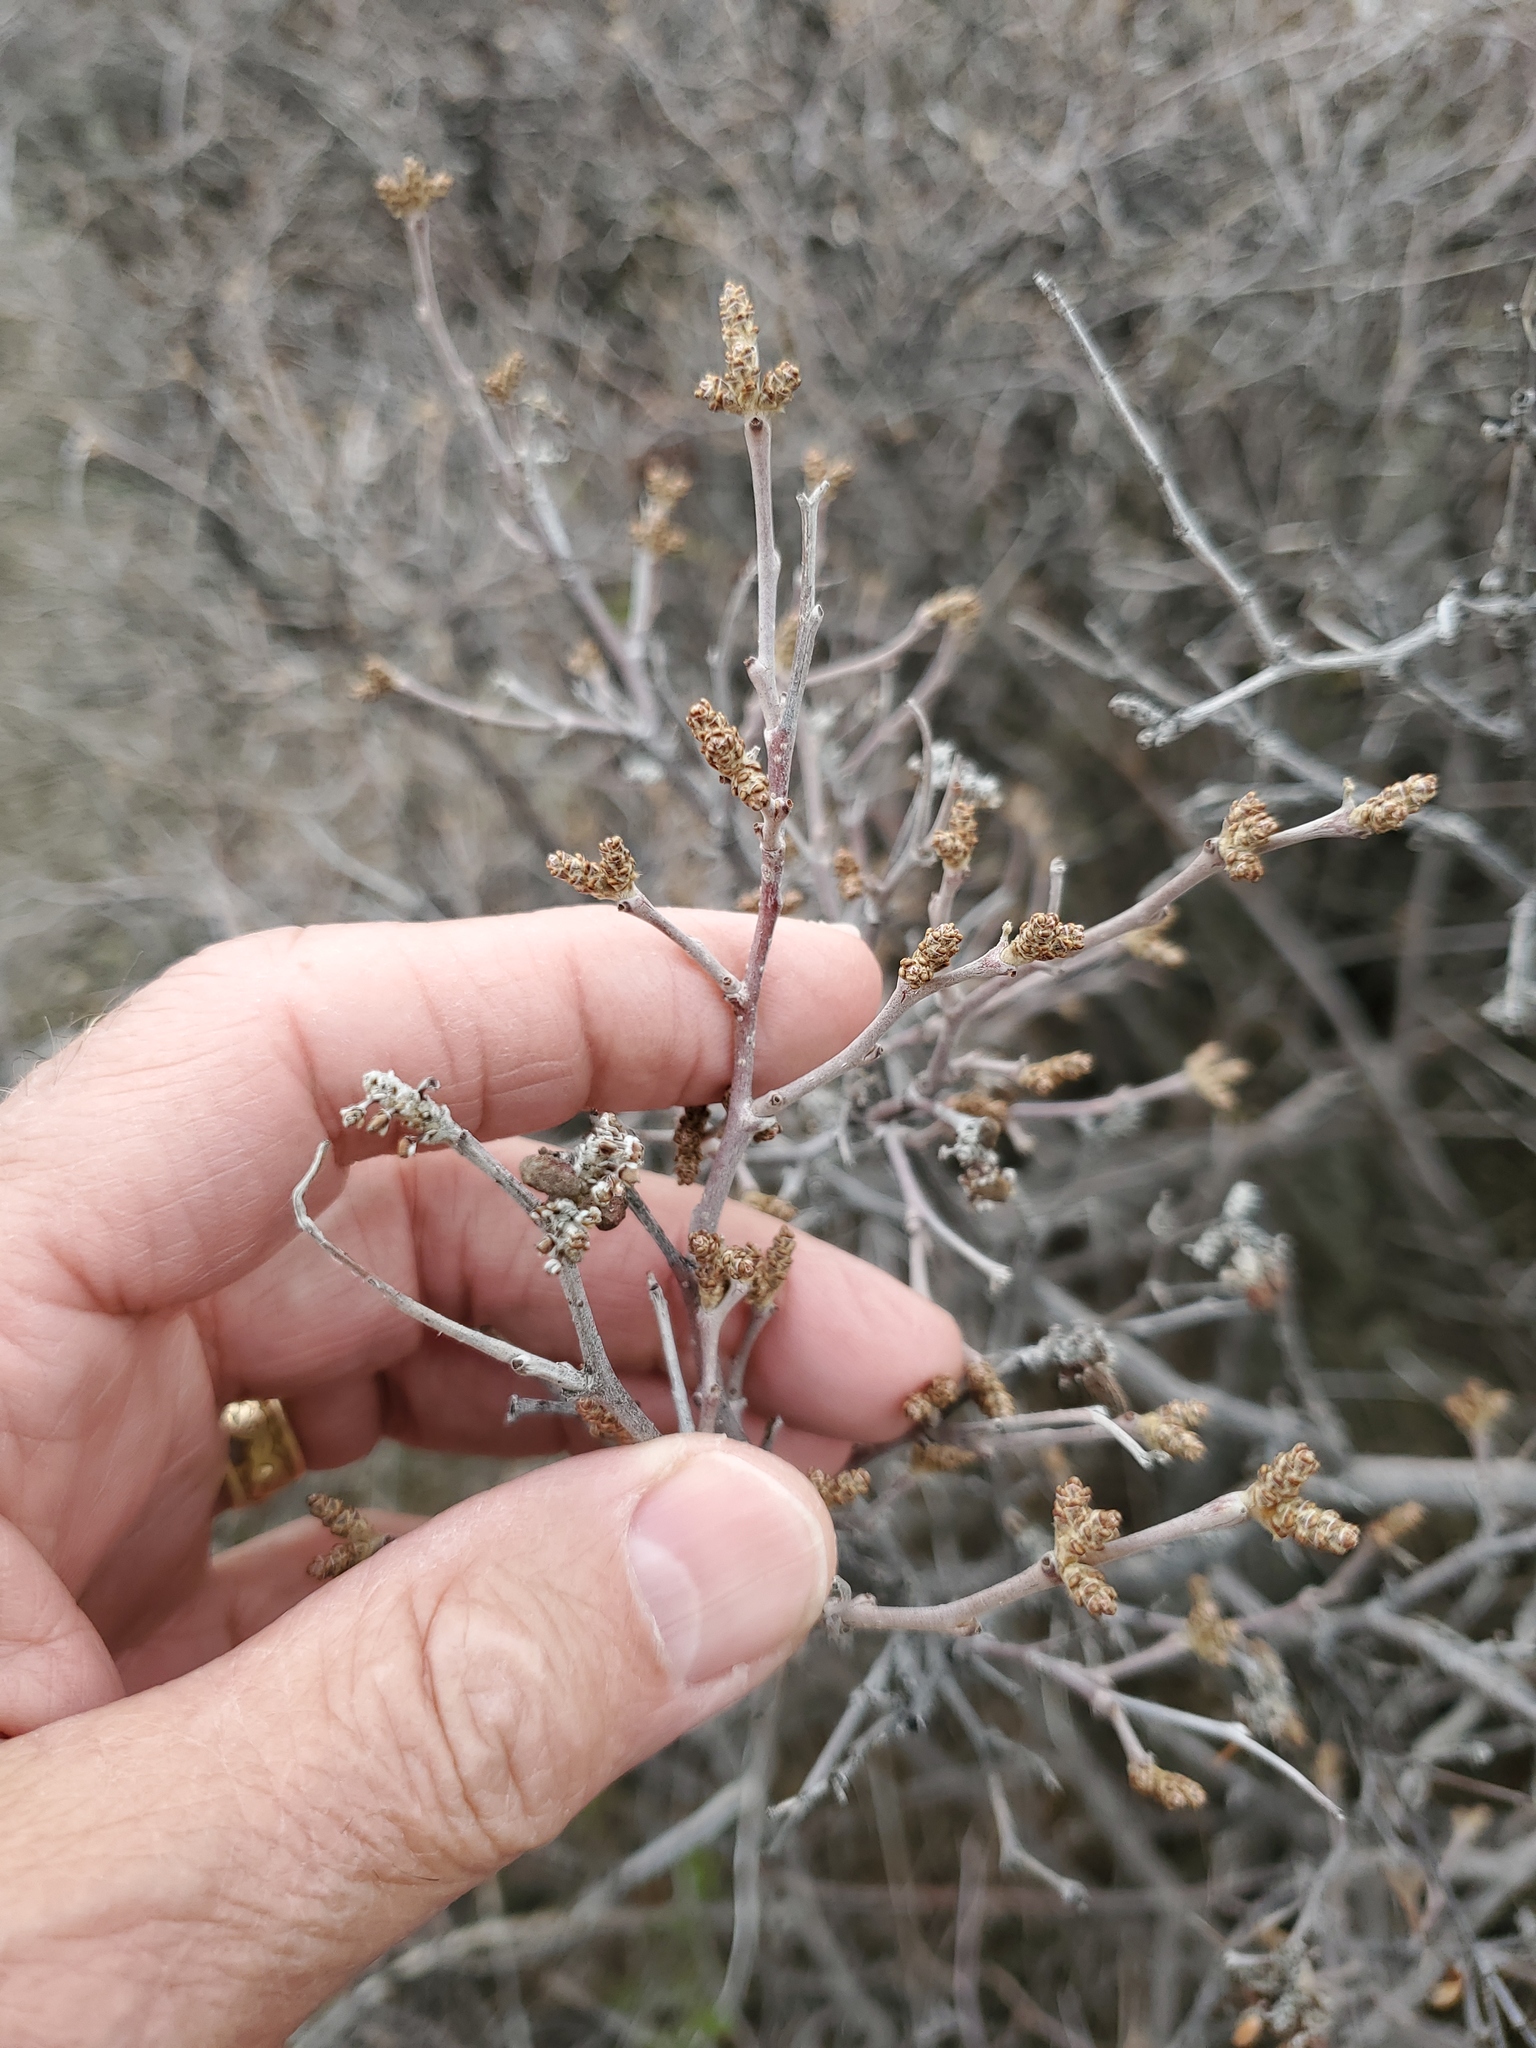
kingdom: Plantae
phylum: Tracheophyta
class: Magnoliopsida
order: Sapindales
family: Anacardiaceae
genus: Rhus
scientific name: Rhus aromatica
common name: Aromatic sumac
